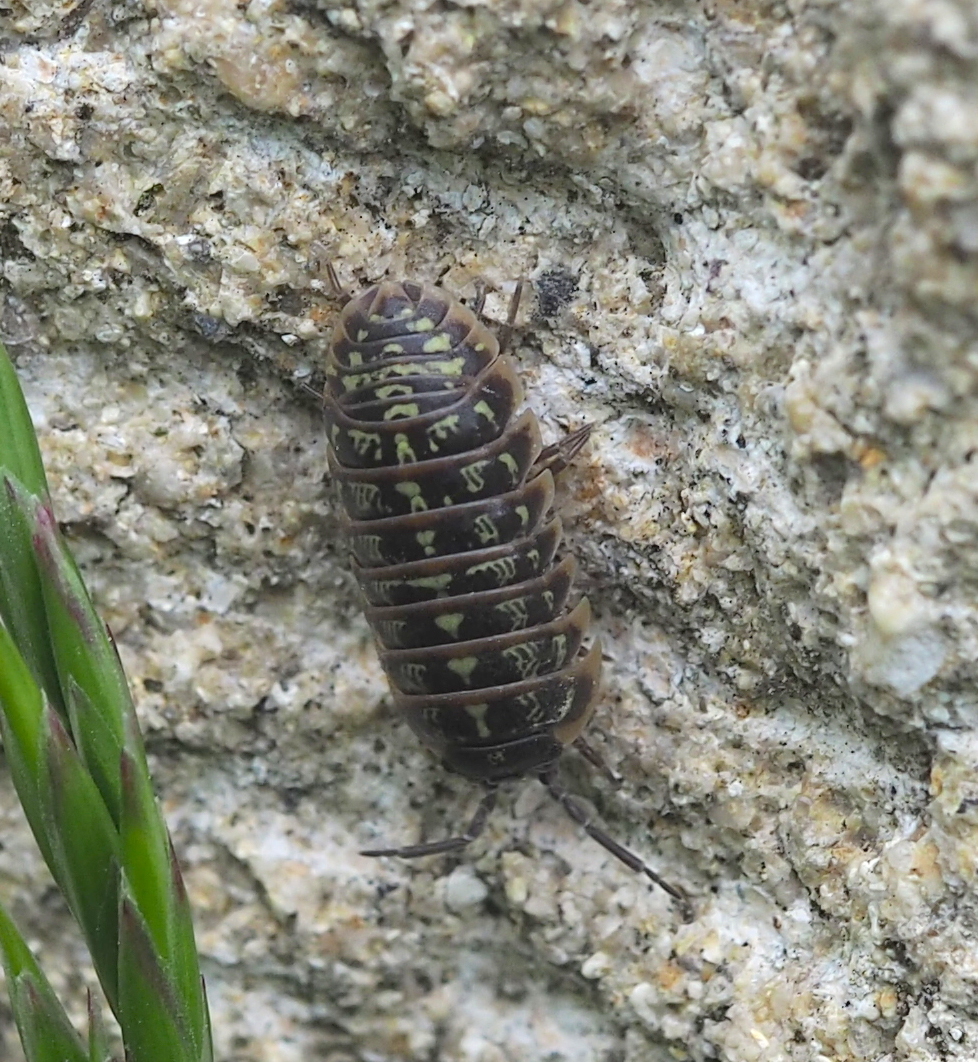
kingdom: Animalia
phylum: Arthropoda
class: Malacostraca
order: Isopoda
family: Armadillidiidae
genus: Armadillidium
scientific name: Armadillidium versicolor
